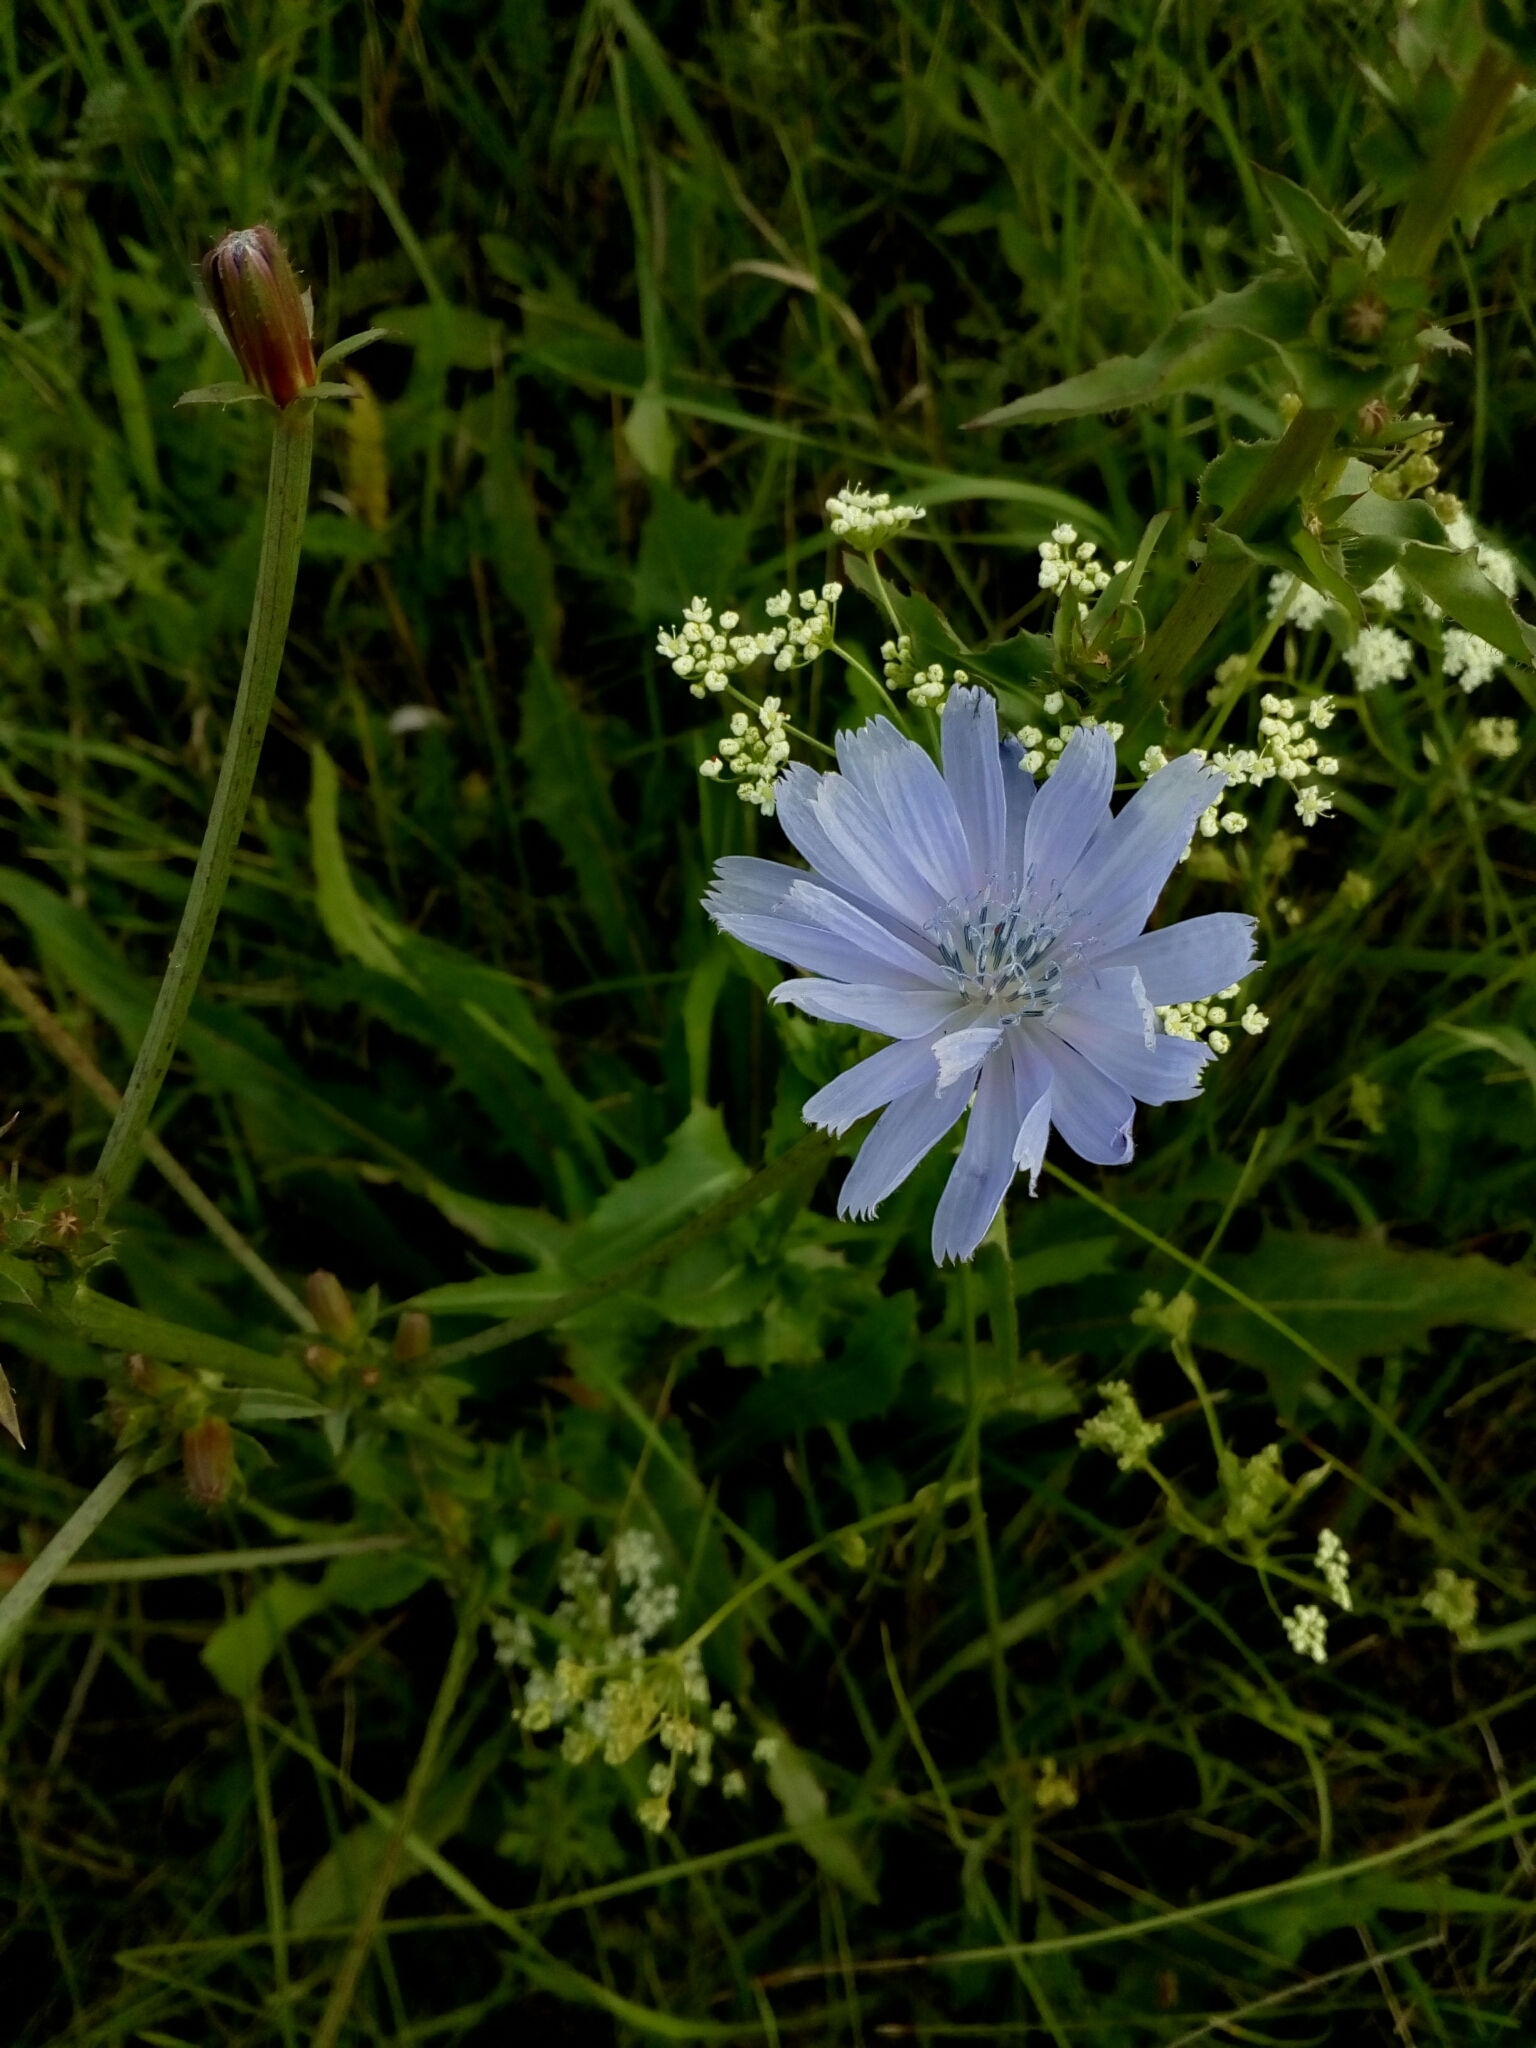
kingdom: Plantae
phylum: Tracheophyta
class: Magnoliopsida
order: Asterales
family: Asteraceae
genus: Cichorium
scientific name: Cichorium intybus
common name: Chicory
